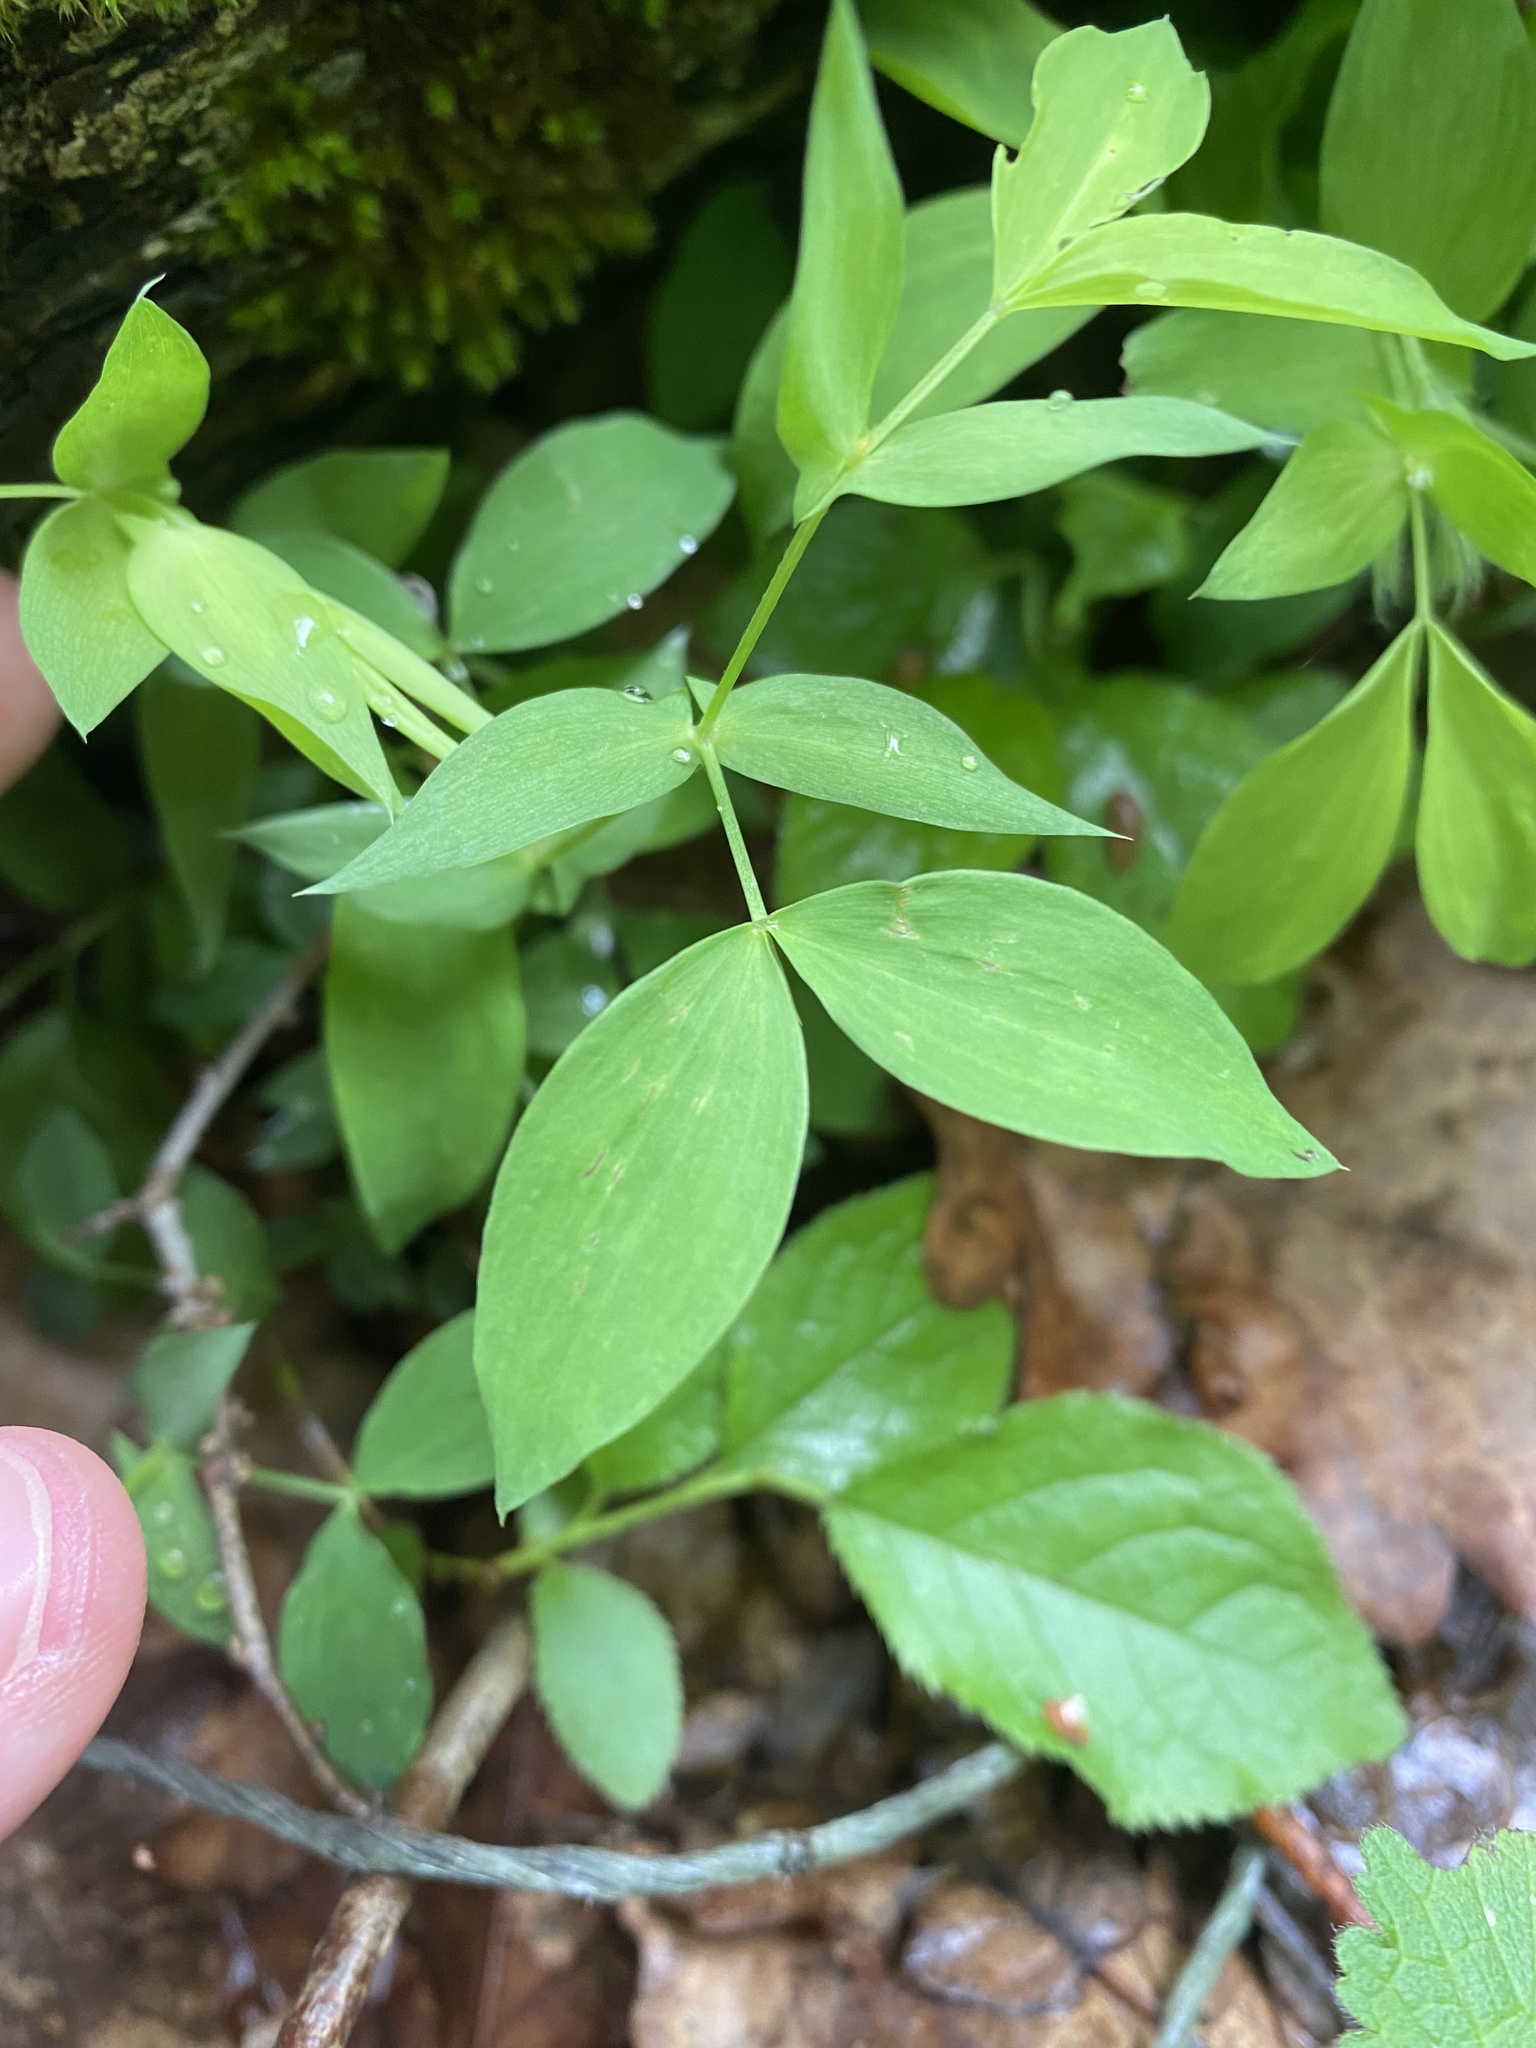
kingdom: Plantae
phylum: Tracheophyta
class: Magnoliopsida
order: Fabales
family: Fabaceae
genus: Lathyrus
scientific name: Lathyrus laxiflorus
